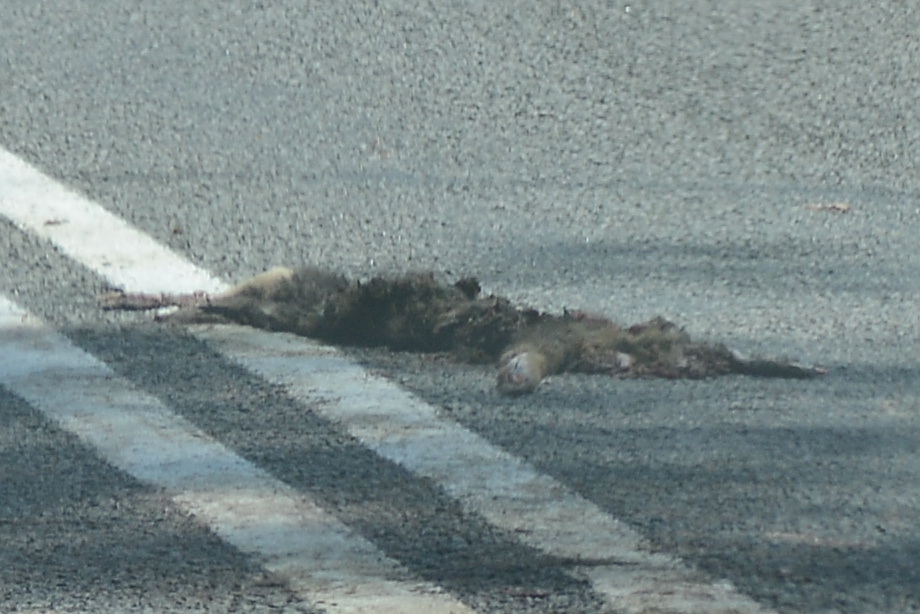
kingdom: Animalia
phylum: Chordata
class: Mammalia
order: Diprotodontia
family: Macropodidae
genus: Thylogale
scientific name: Thylogale billardierii
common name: Tasmanian pademelon
